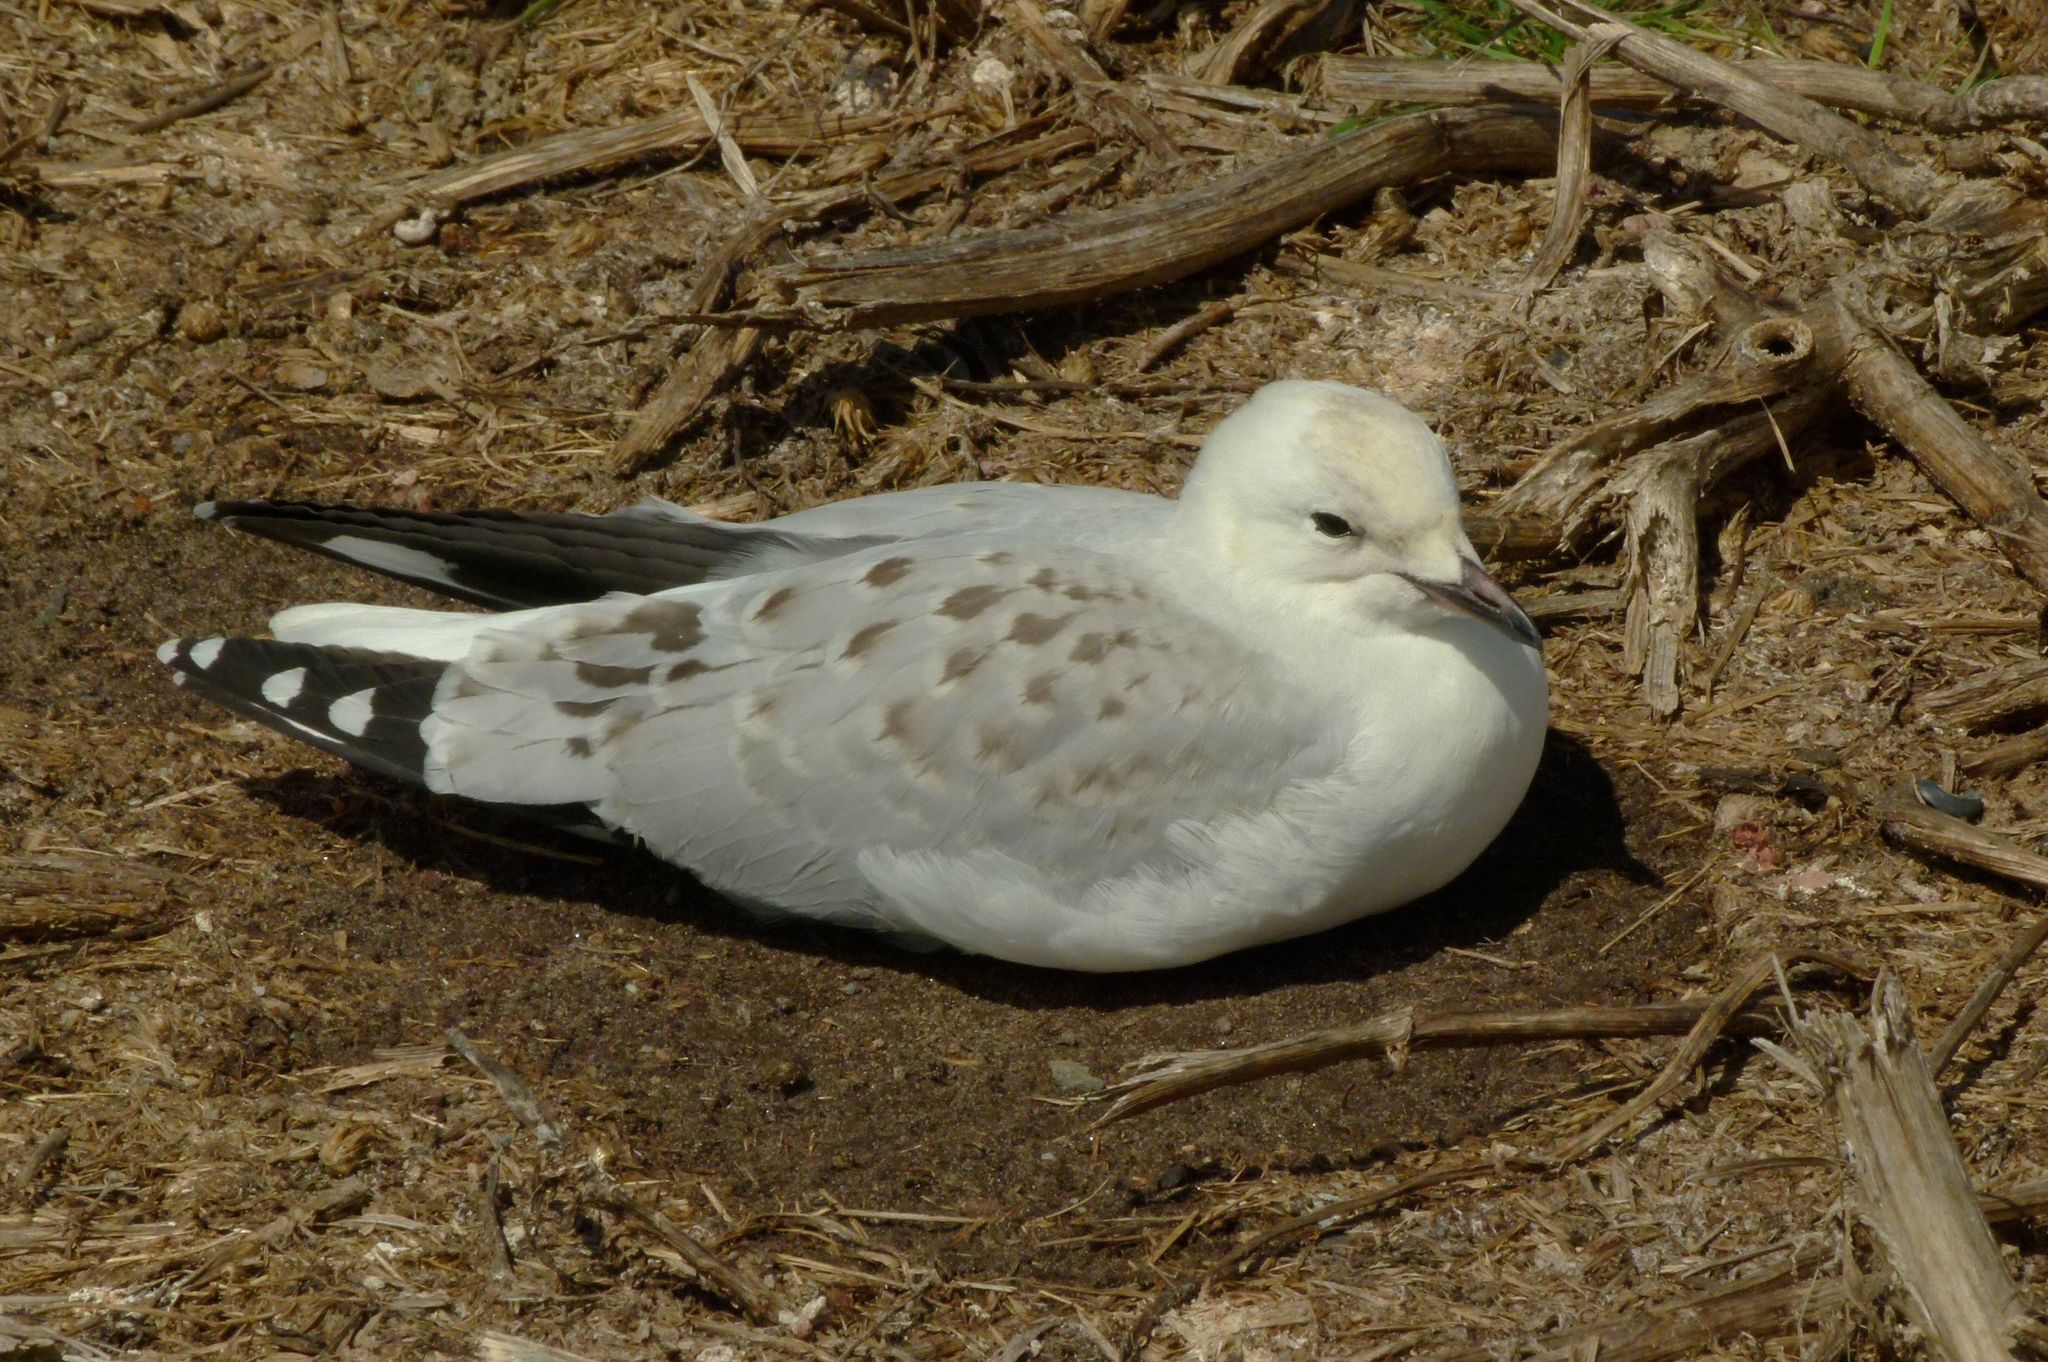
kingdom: Animalia
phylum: Chordata
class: Aves
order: Charadriiformes
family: Laridae
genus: Chroicocephalus
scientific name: Chroicocephalus novaehollandiae
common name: Silver gull
